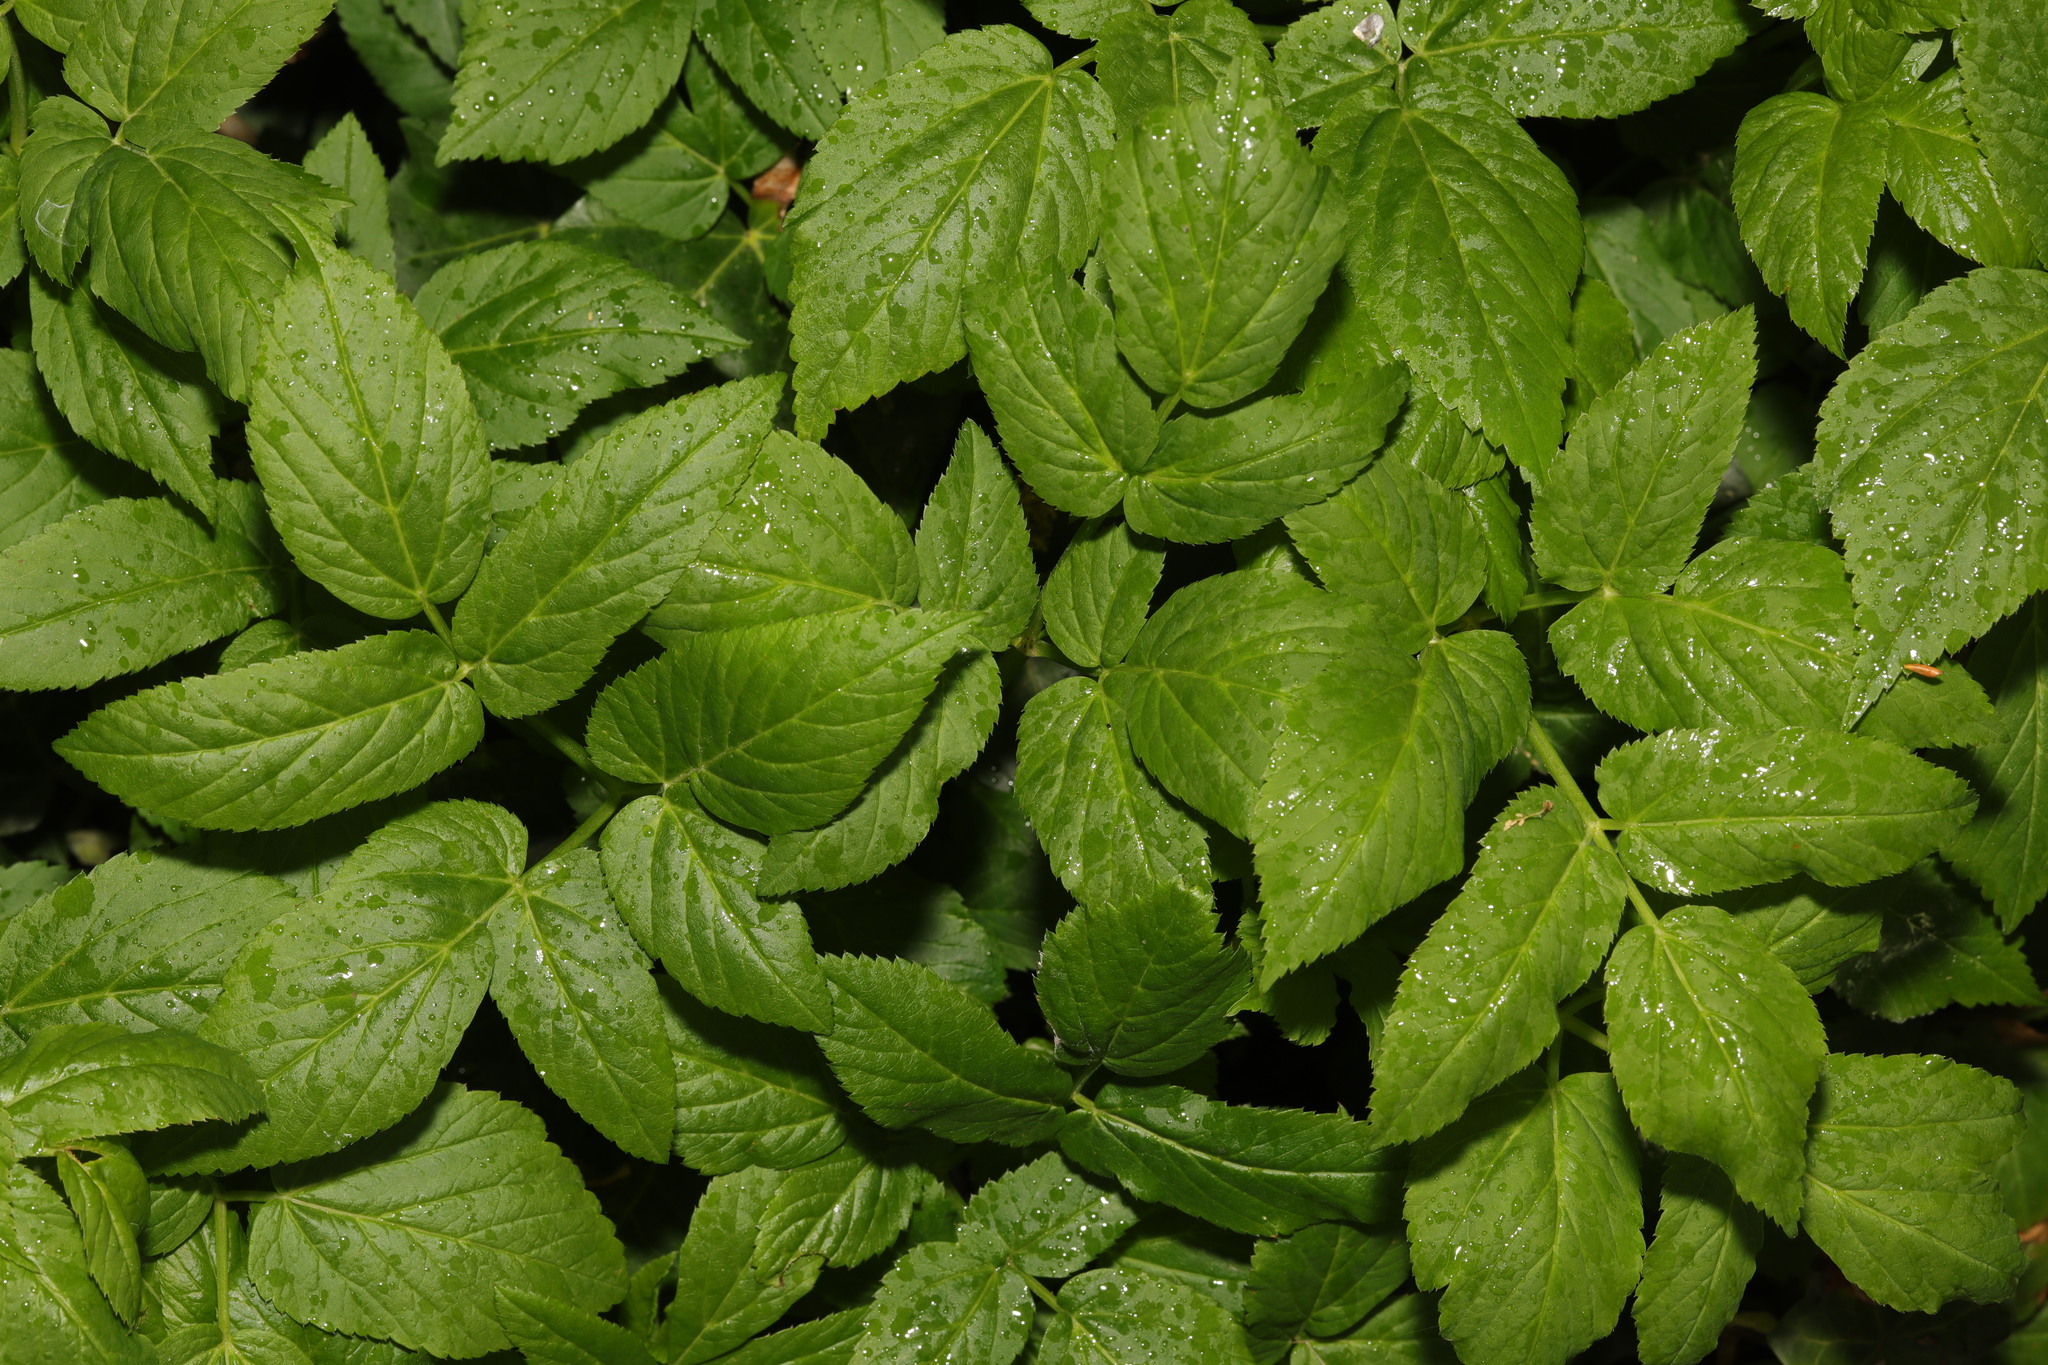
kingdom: Plantae
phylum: Tracheophyta
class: Magnoliopsida
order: Apiales
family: Apiaceae
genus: Aegopodium
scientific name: Aegopodium podagraria
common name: Ground-elder
